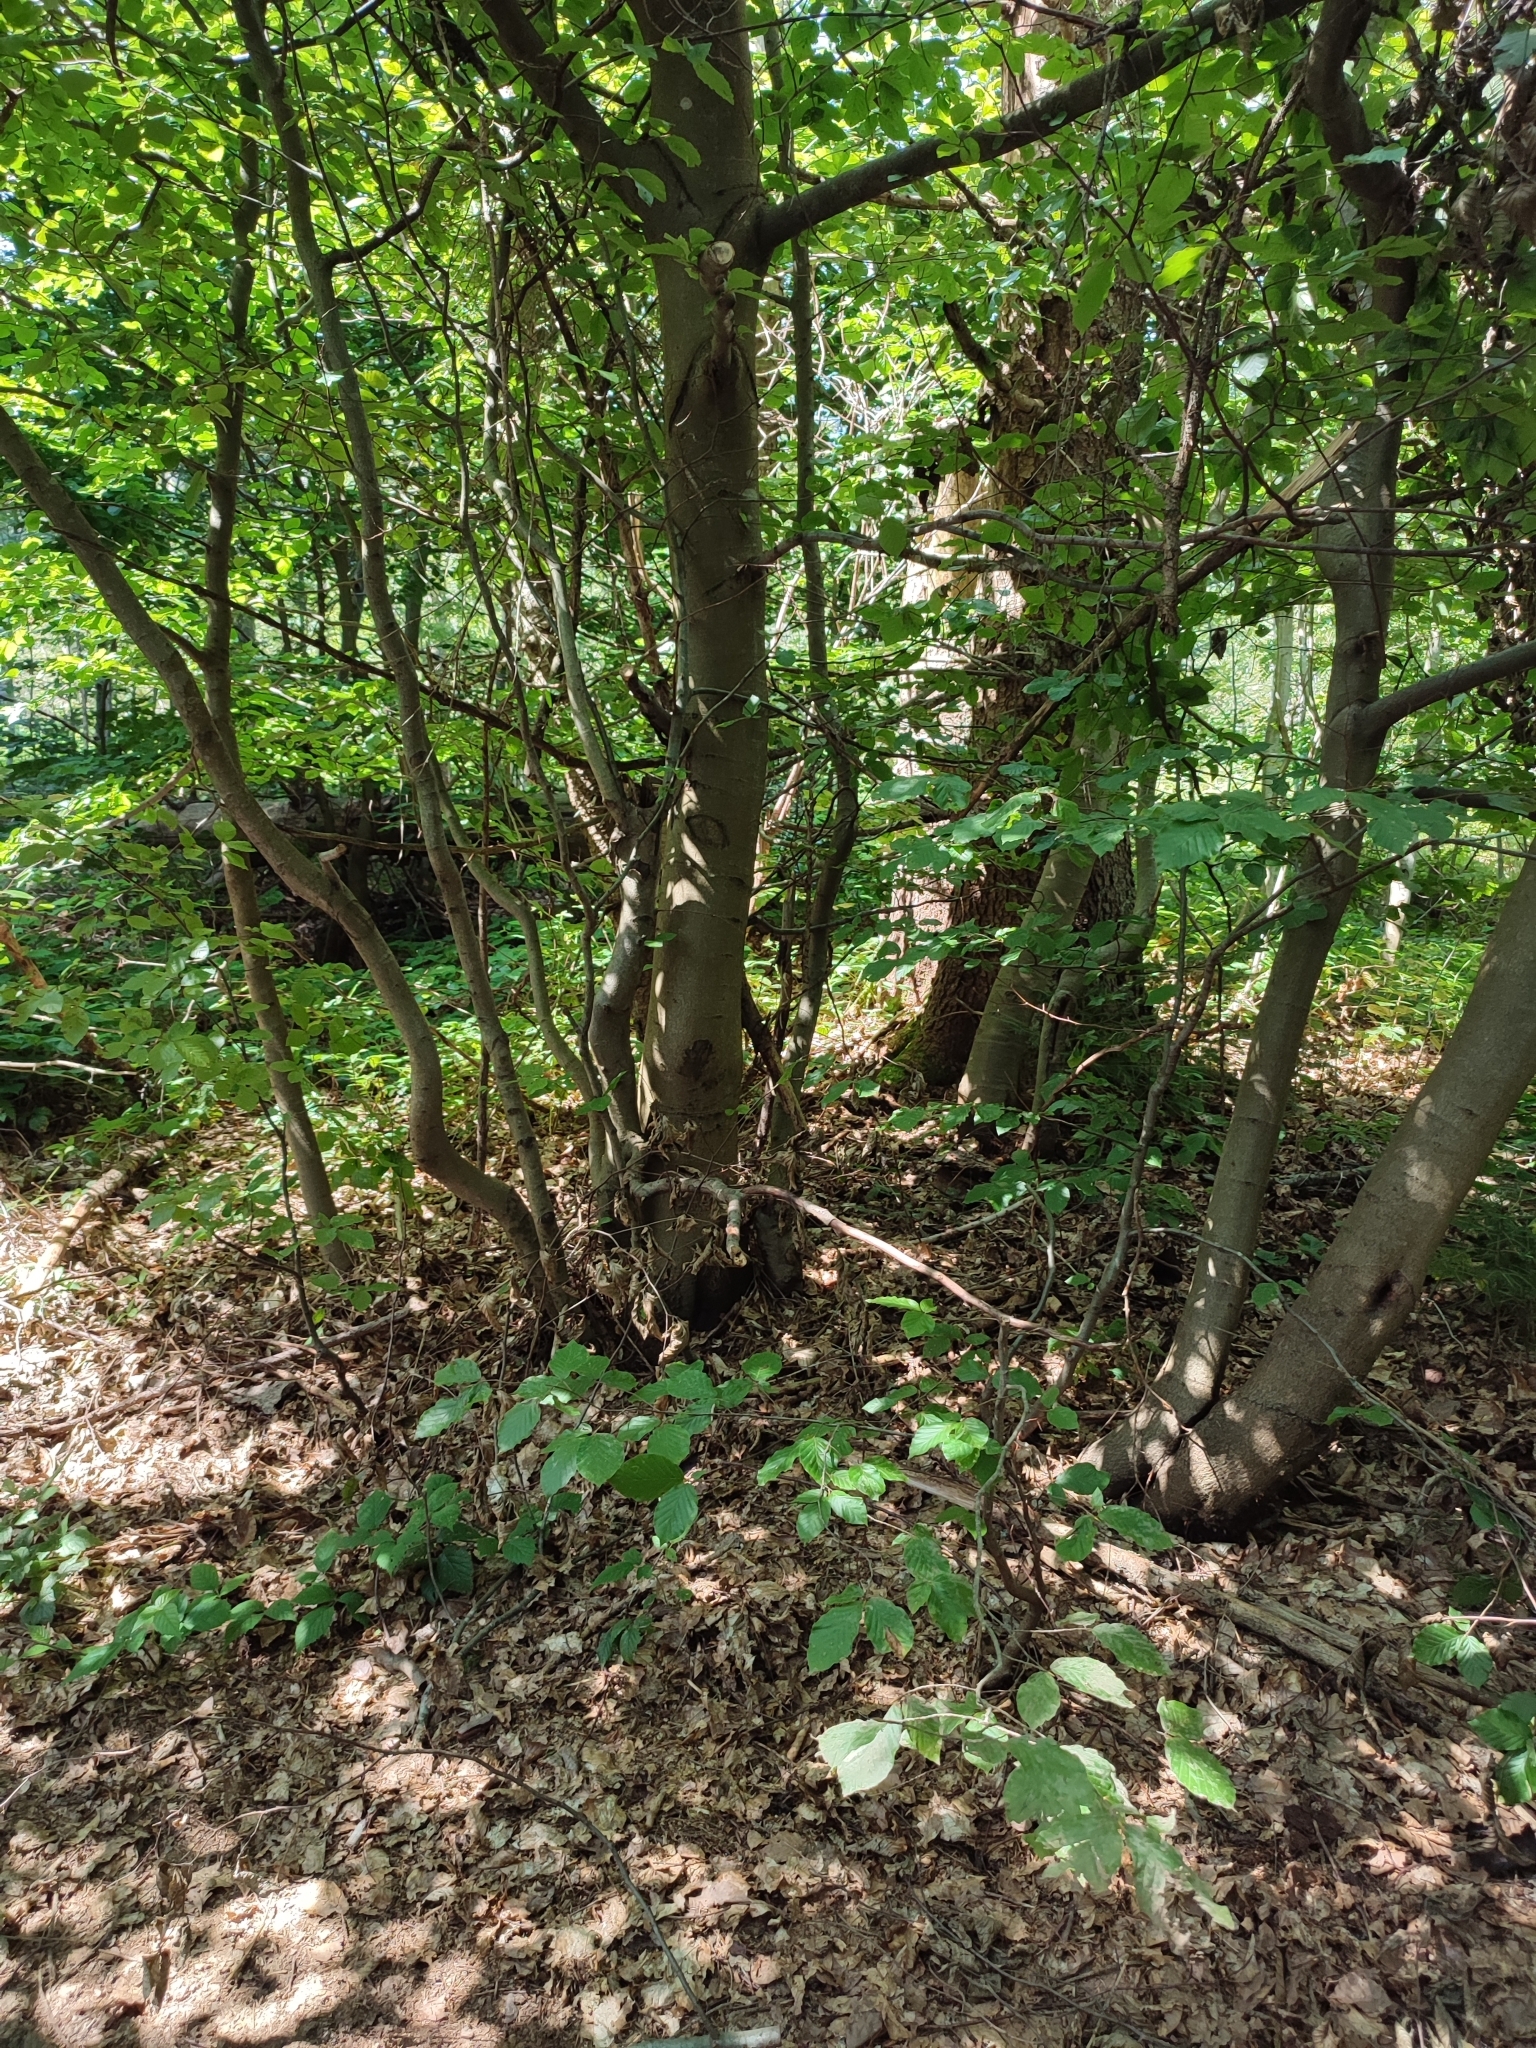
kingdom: Plantae
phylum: Tracheophyta
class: Magnoliopsida
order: Fagales
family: Fagaceae
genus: Fagus
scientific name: Fagus sylvatica
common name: Beech
